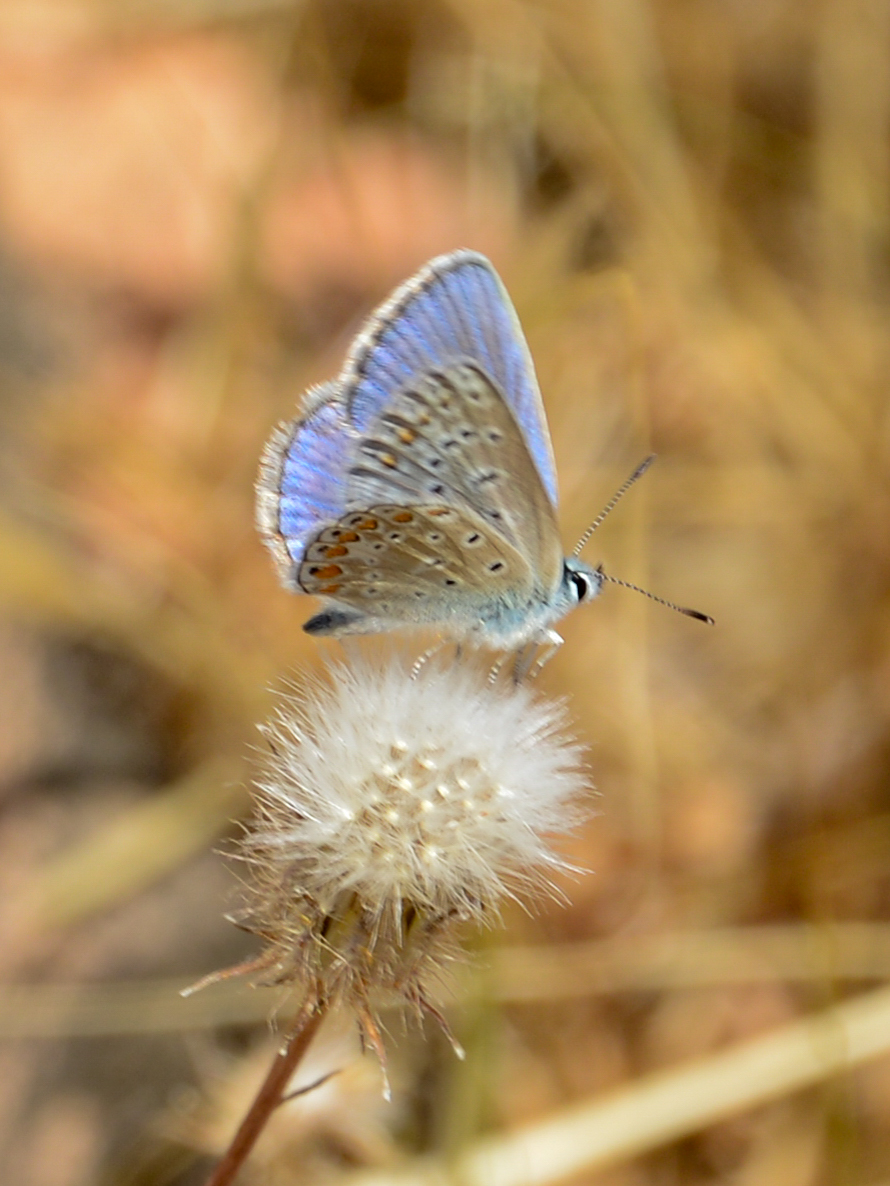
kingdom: Animalia
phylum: Arthropoda
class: Insecta
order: Lepidoptera
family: Lycaenidae
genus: Polyommatus
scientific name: Polyommatus icarus
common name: Common blue
